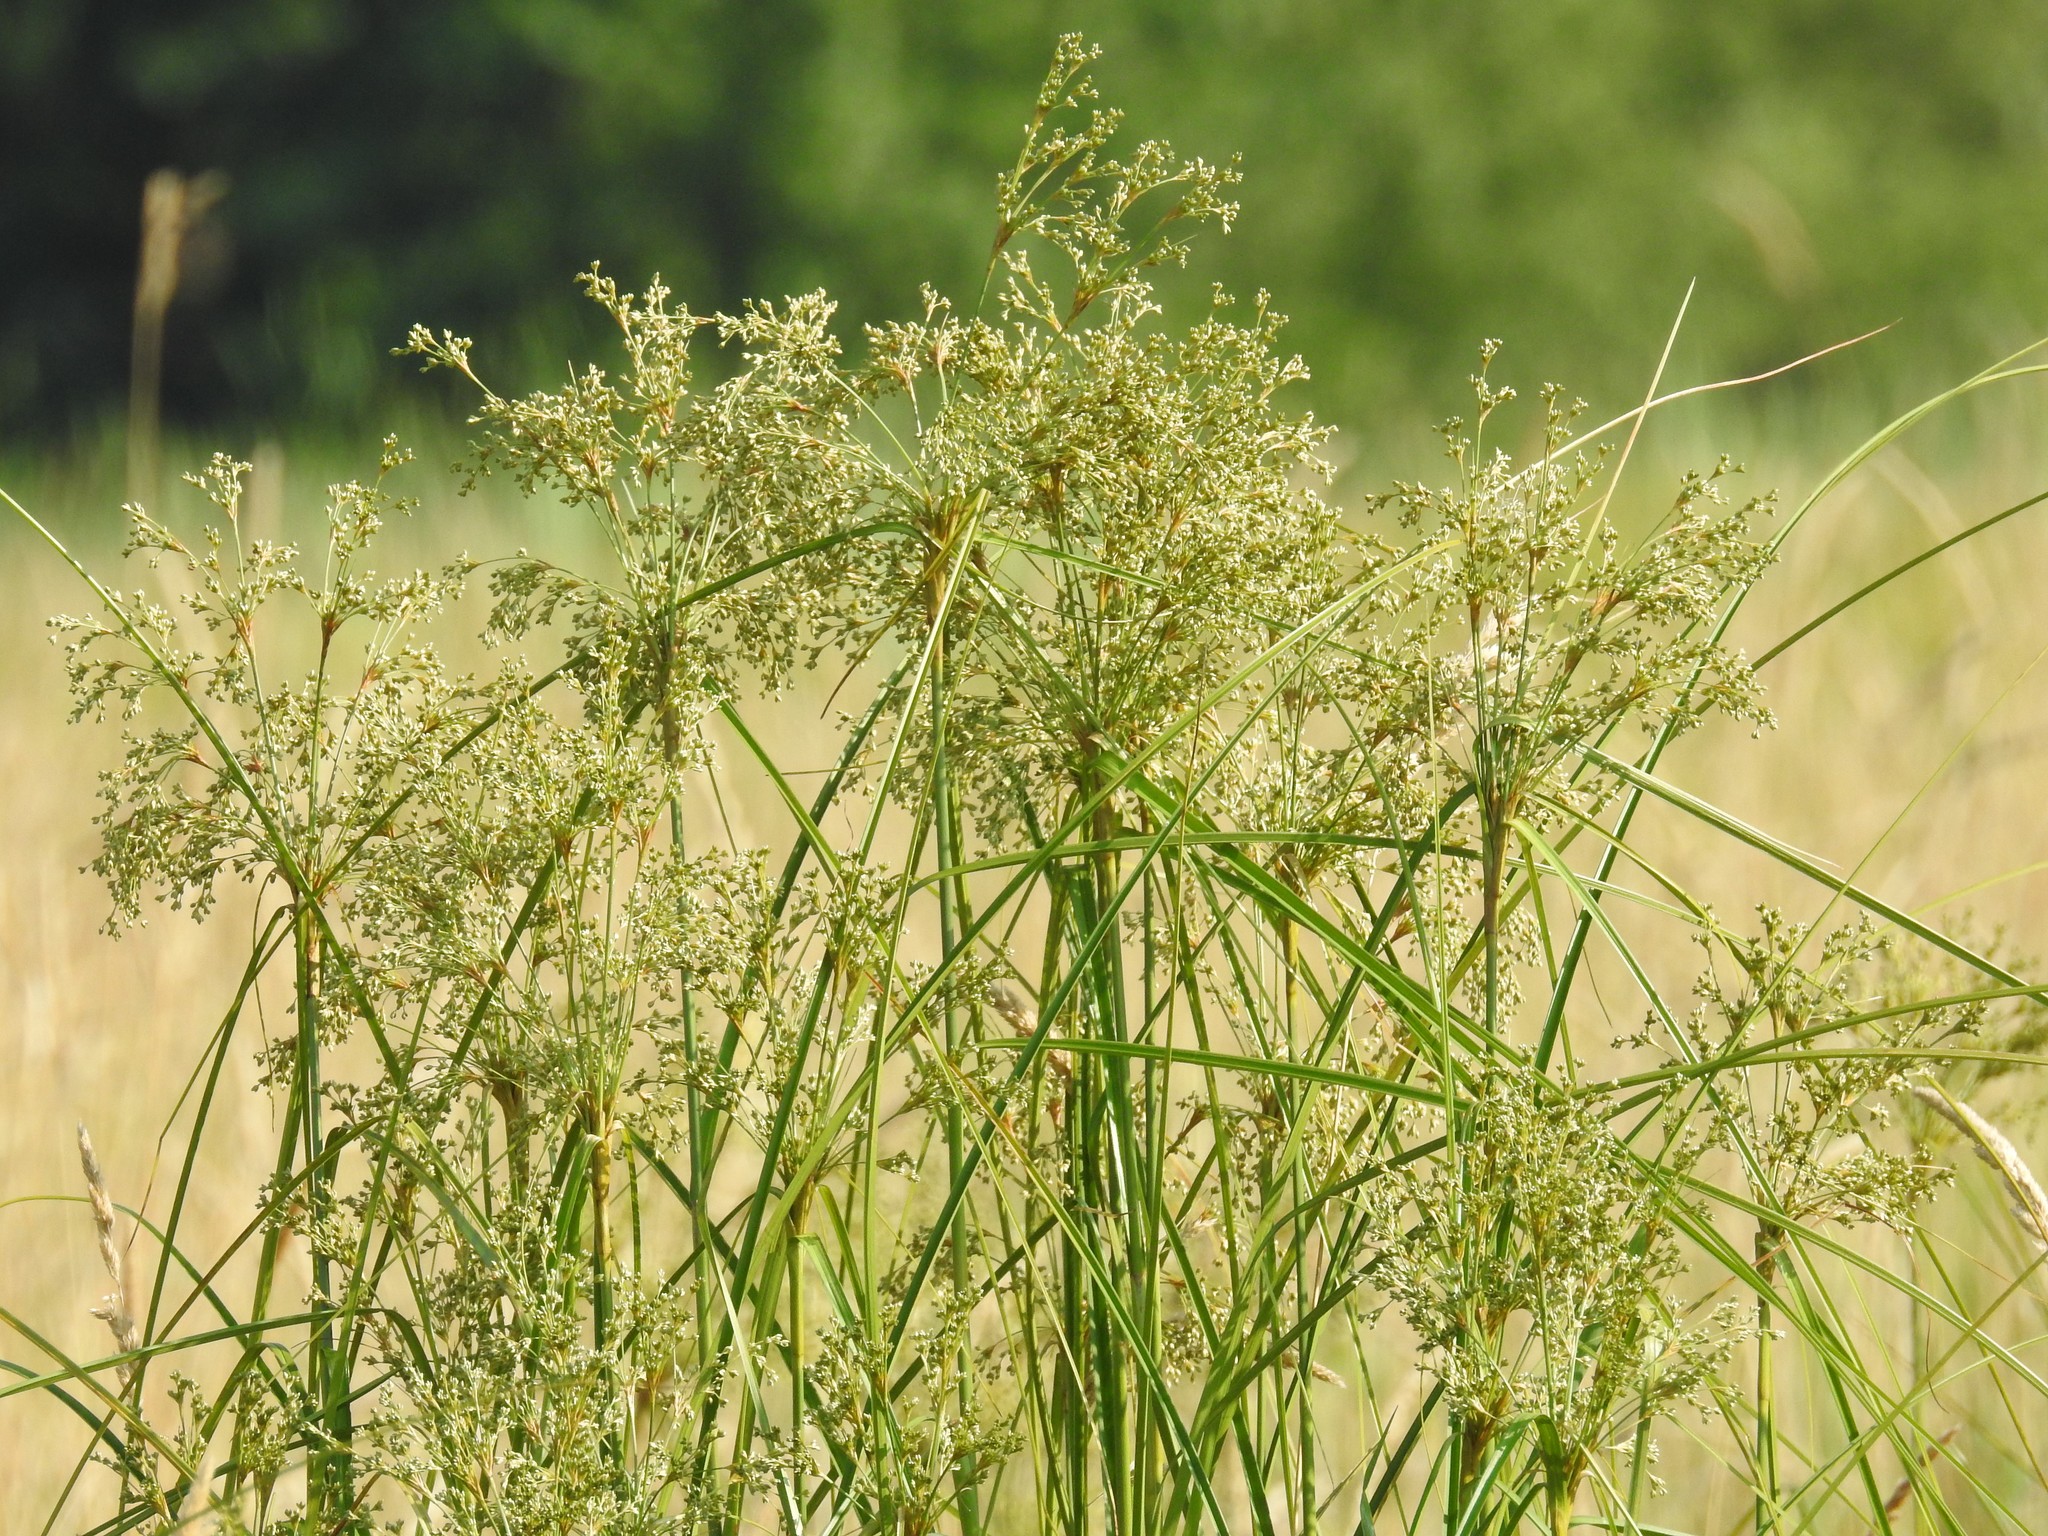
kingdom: Plantae
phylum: Tracheophyta
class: Liliopsida
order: Poales
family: Cyperaceae
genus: Scirpus
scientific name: Scirpus cyperinus
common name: Black-sheathed bulrush
